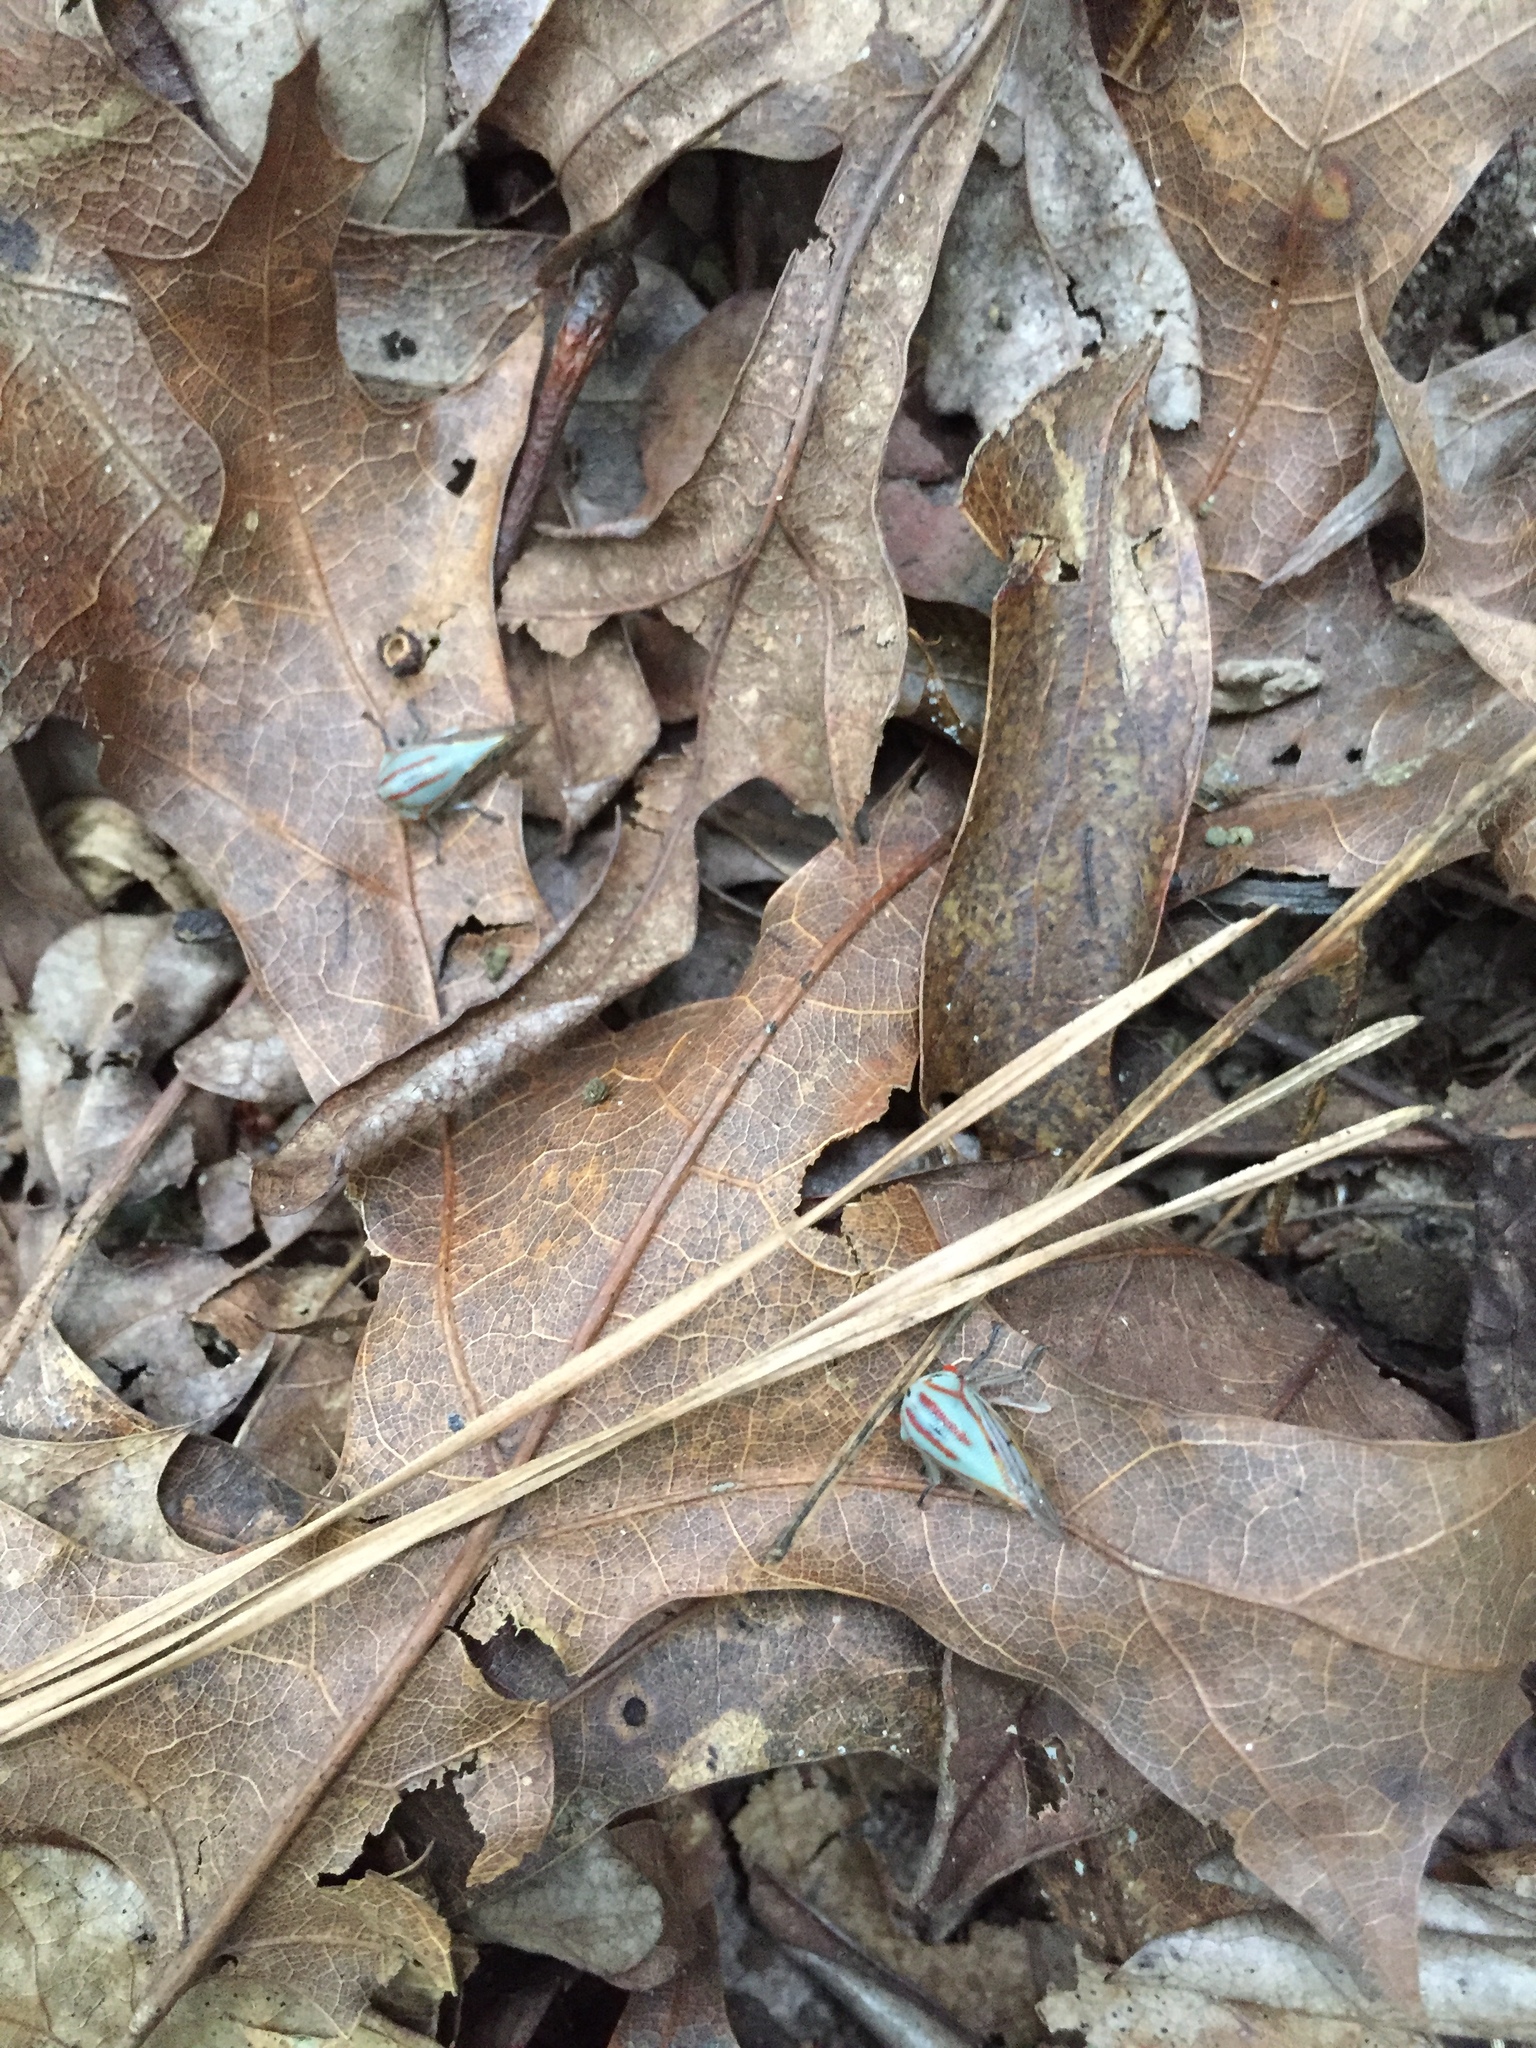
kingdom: Animalia
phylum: Arthropoda
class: Insecta
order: Hemiptera
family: Membracidae
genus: Platycotis
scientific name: Platycotis vittatus
